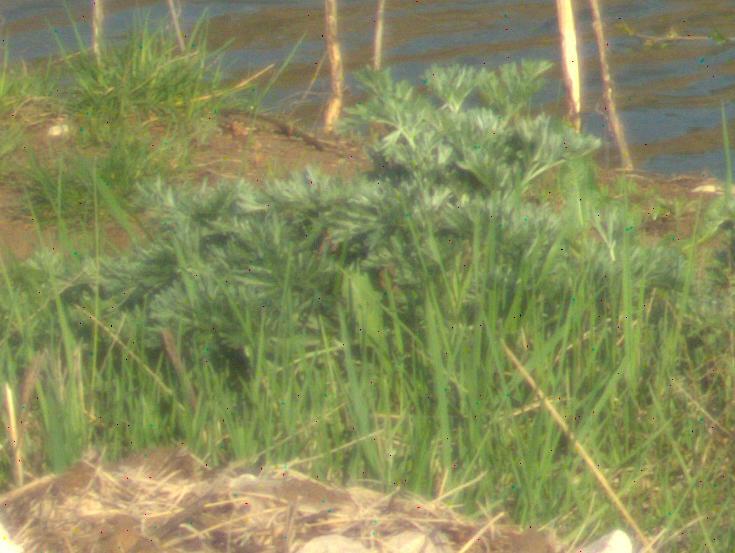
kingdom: Plantae
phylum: Tracheophyta
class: Magnoliopsida
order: Asterales
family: Asteraceae
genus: Artemisia
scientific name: Artemisia absinthium
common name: Wormwood
